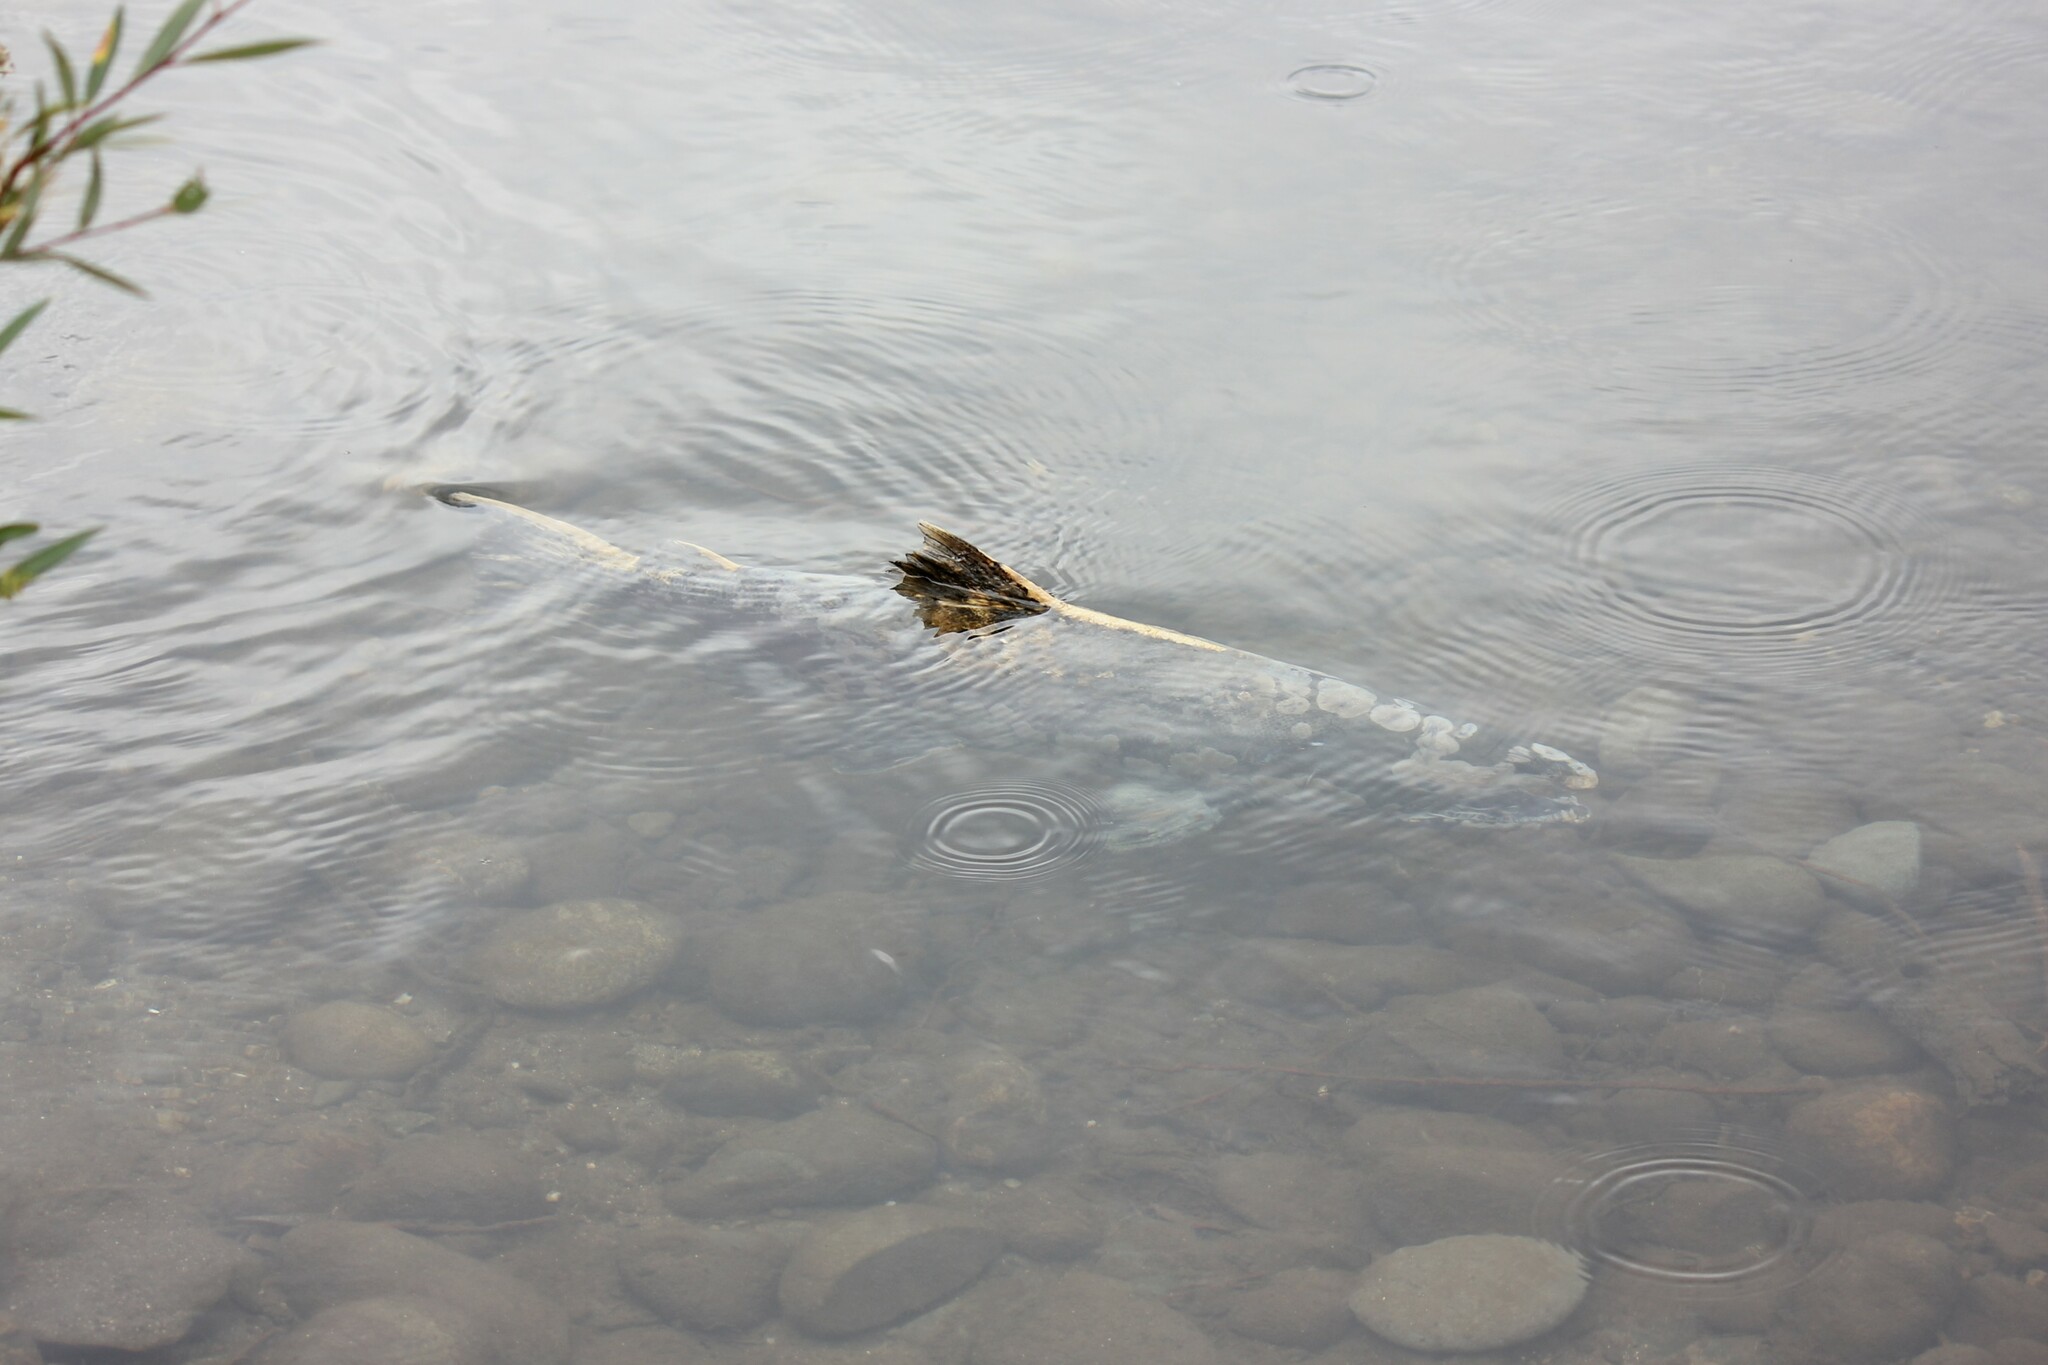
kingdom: Animalia
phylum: Chordata
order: Salmoniformes
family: Salmonidae
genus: Oncorhynchus
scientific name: Oncorhynchus tshawytscha
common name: Chinook salmon
